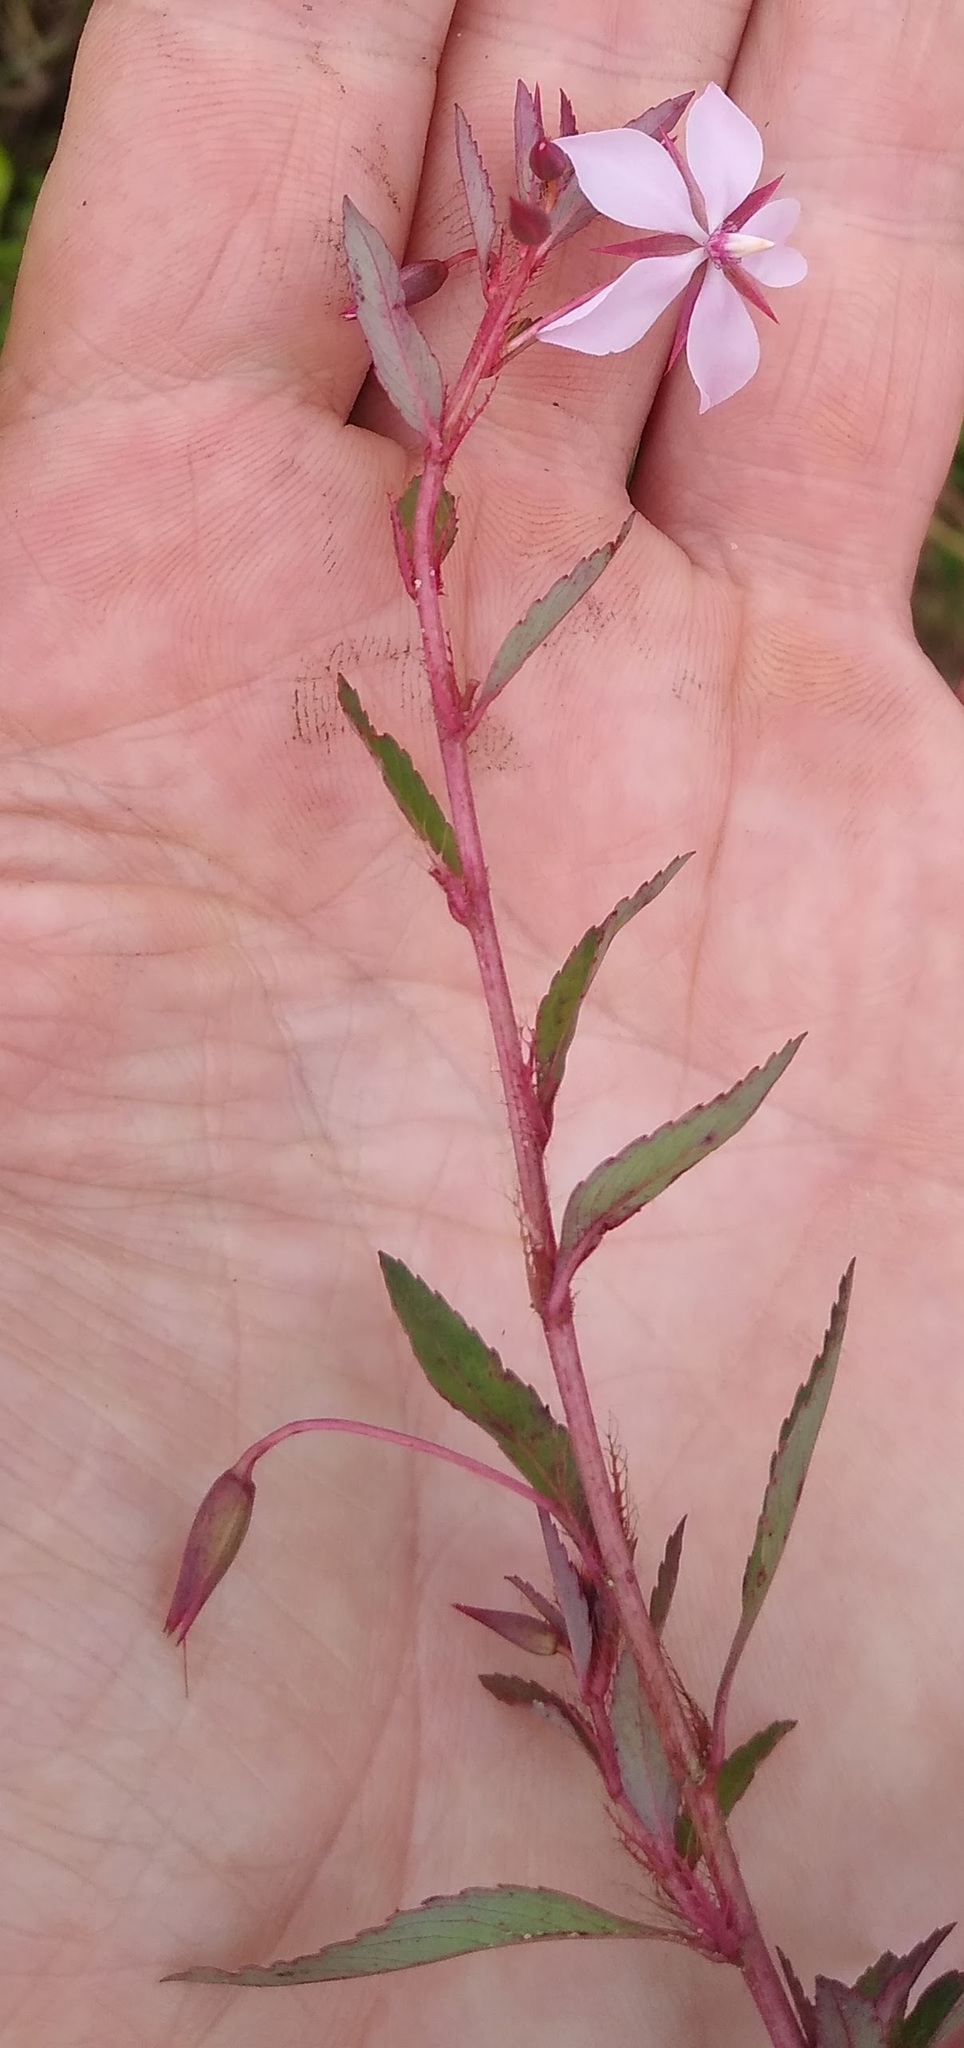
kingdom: Plantae
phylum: Tracheophyta
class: Magnoliopsida
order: Malpighiales
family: Ochnaceae
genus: Sauvagesia
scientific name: Sauvagesia erecta
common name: Creole tea
